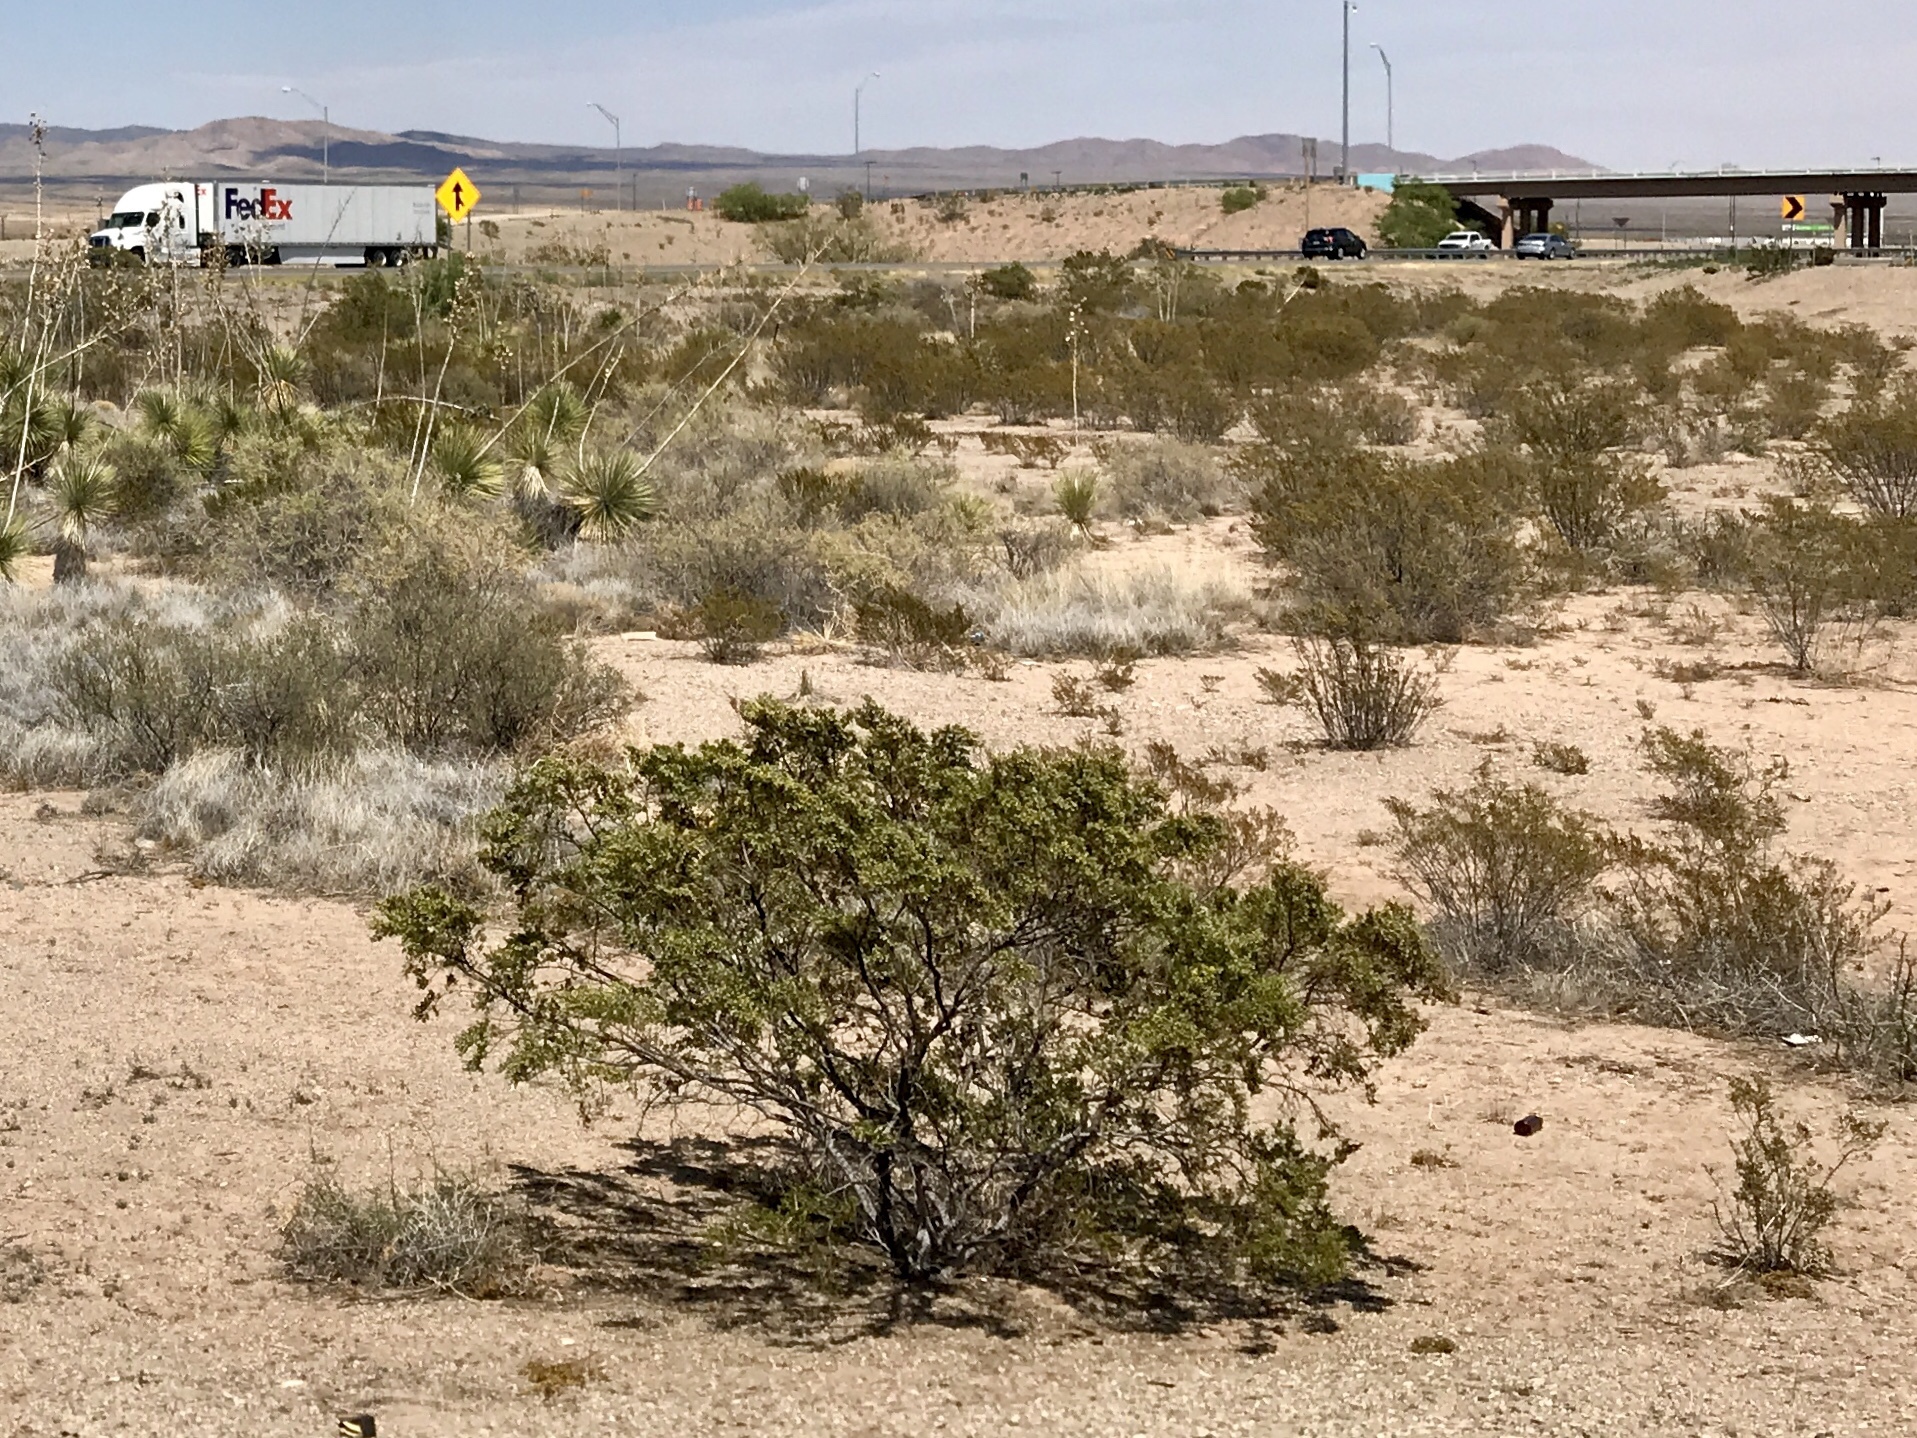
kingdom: Plantae
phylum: Tracheophyta
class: Magnoliopsida
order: Zygophyllales
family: Zygophyllaceae
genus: Larrea
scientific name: Larrea tridentata
